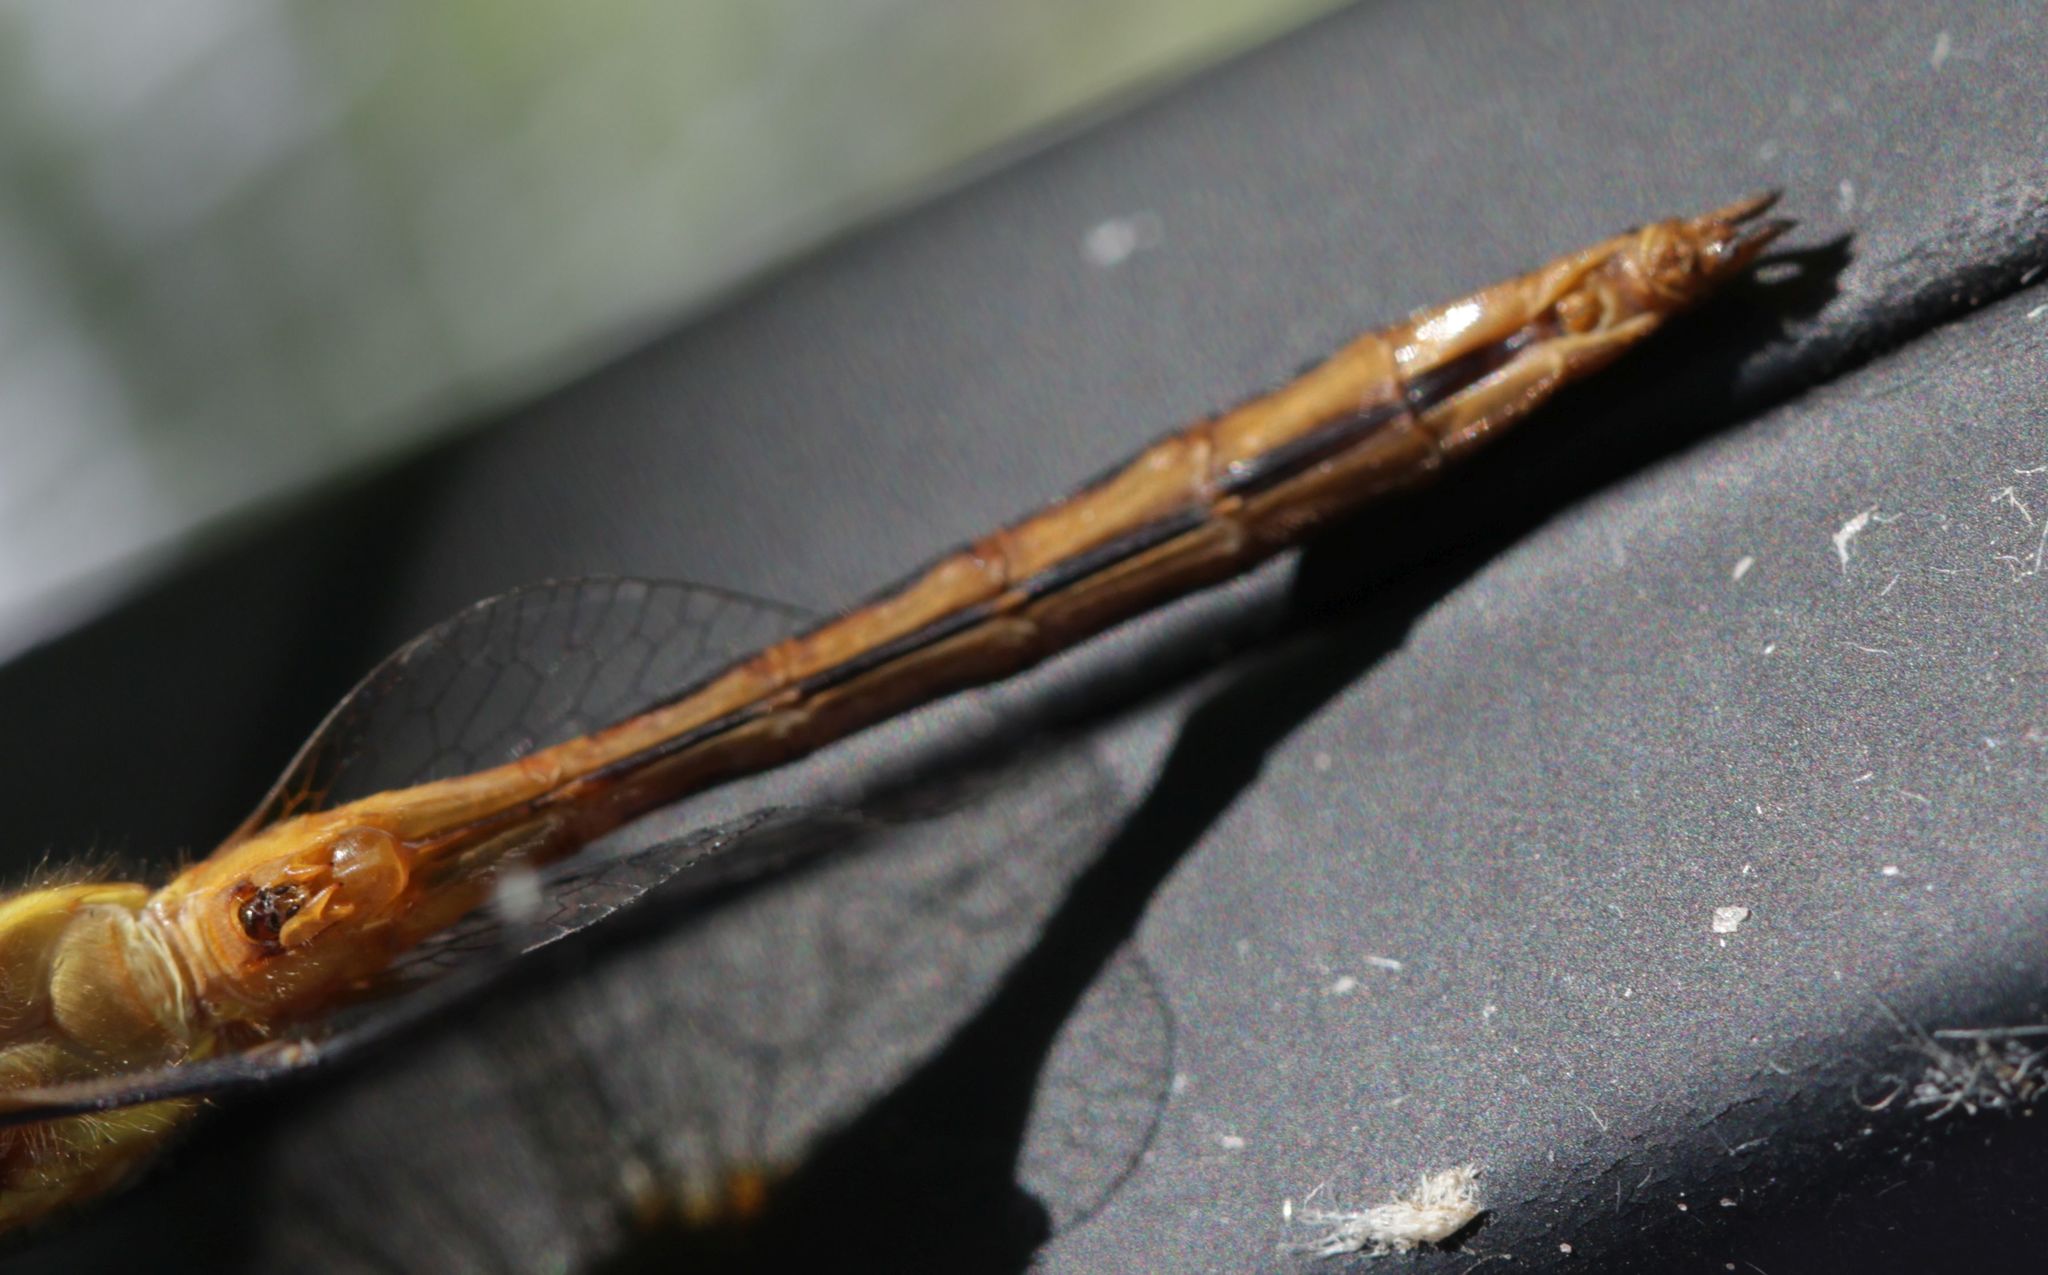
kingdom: Animalia
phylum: Arthropoda
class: Insecta
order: Odonata
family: Libellulidae
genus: Sympetrum
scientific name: Sympetrum rubicundulum
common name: Ruby meadowhawk
